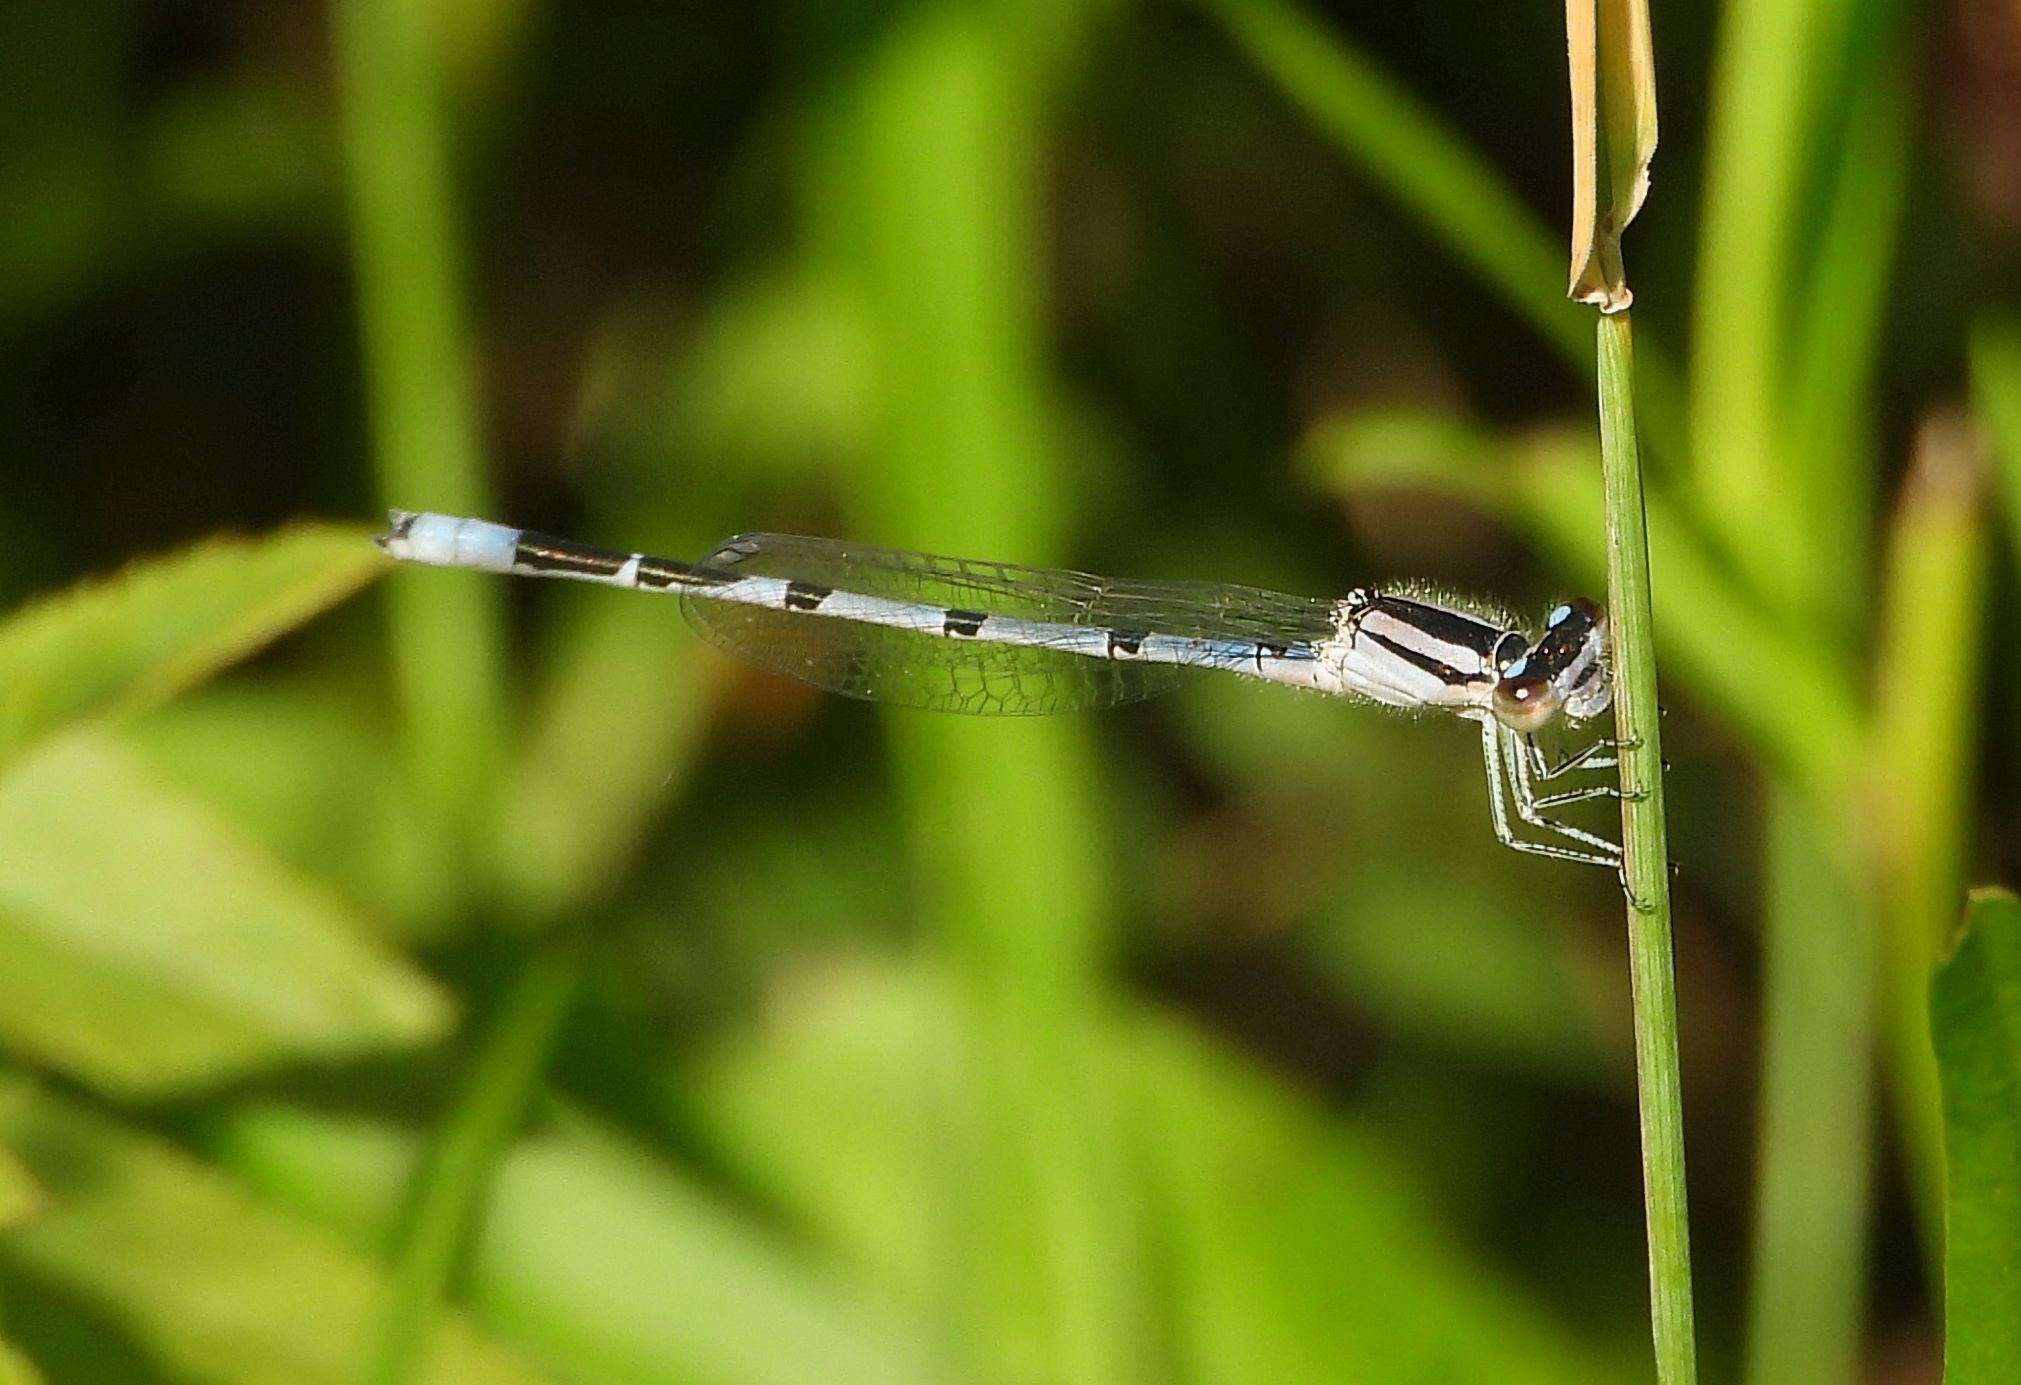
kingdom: Animalia
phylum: Arthropoda
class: Insecta
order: Odonata
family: Coenagrionidae
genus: Enallagma
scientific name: Enallagma civile
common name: Damselfly
